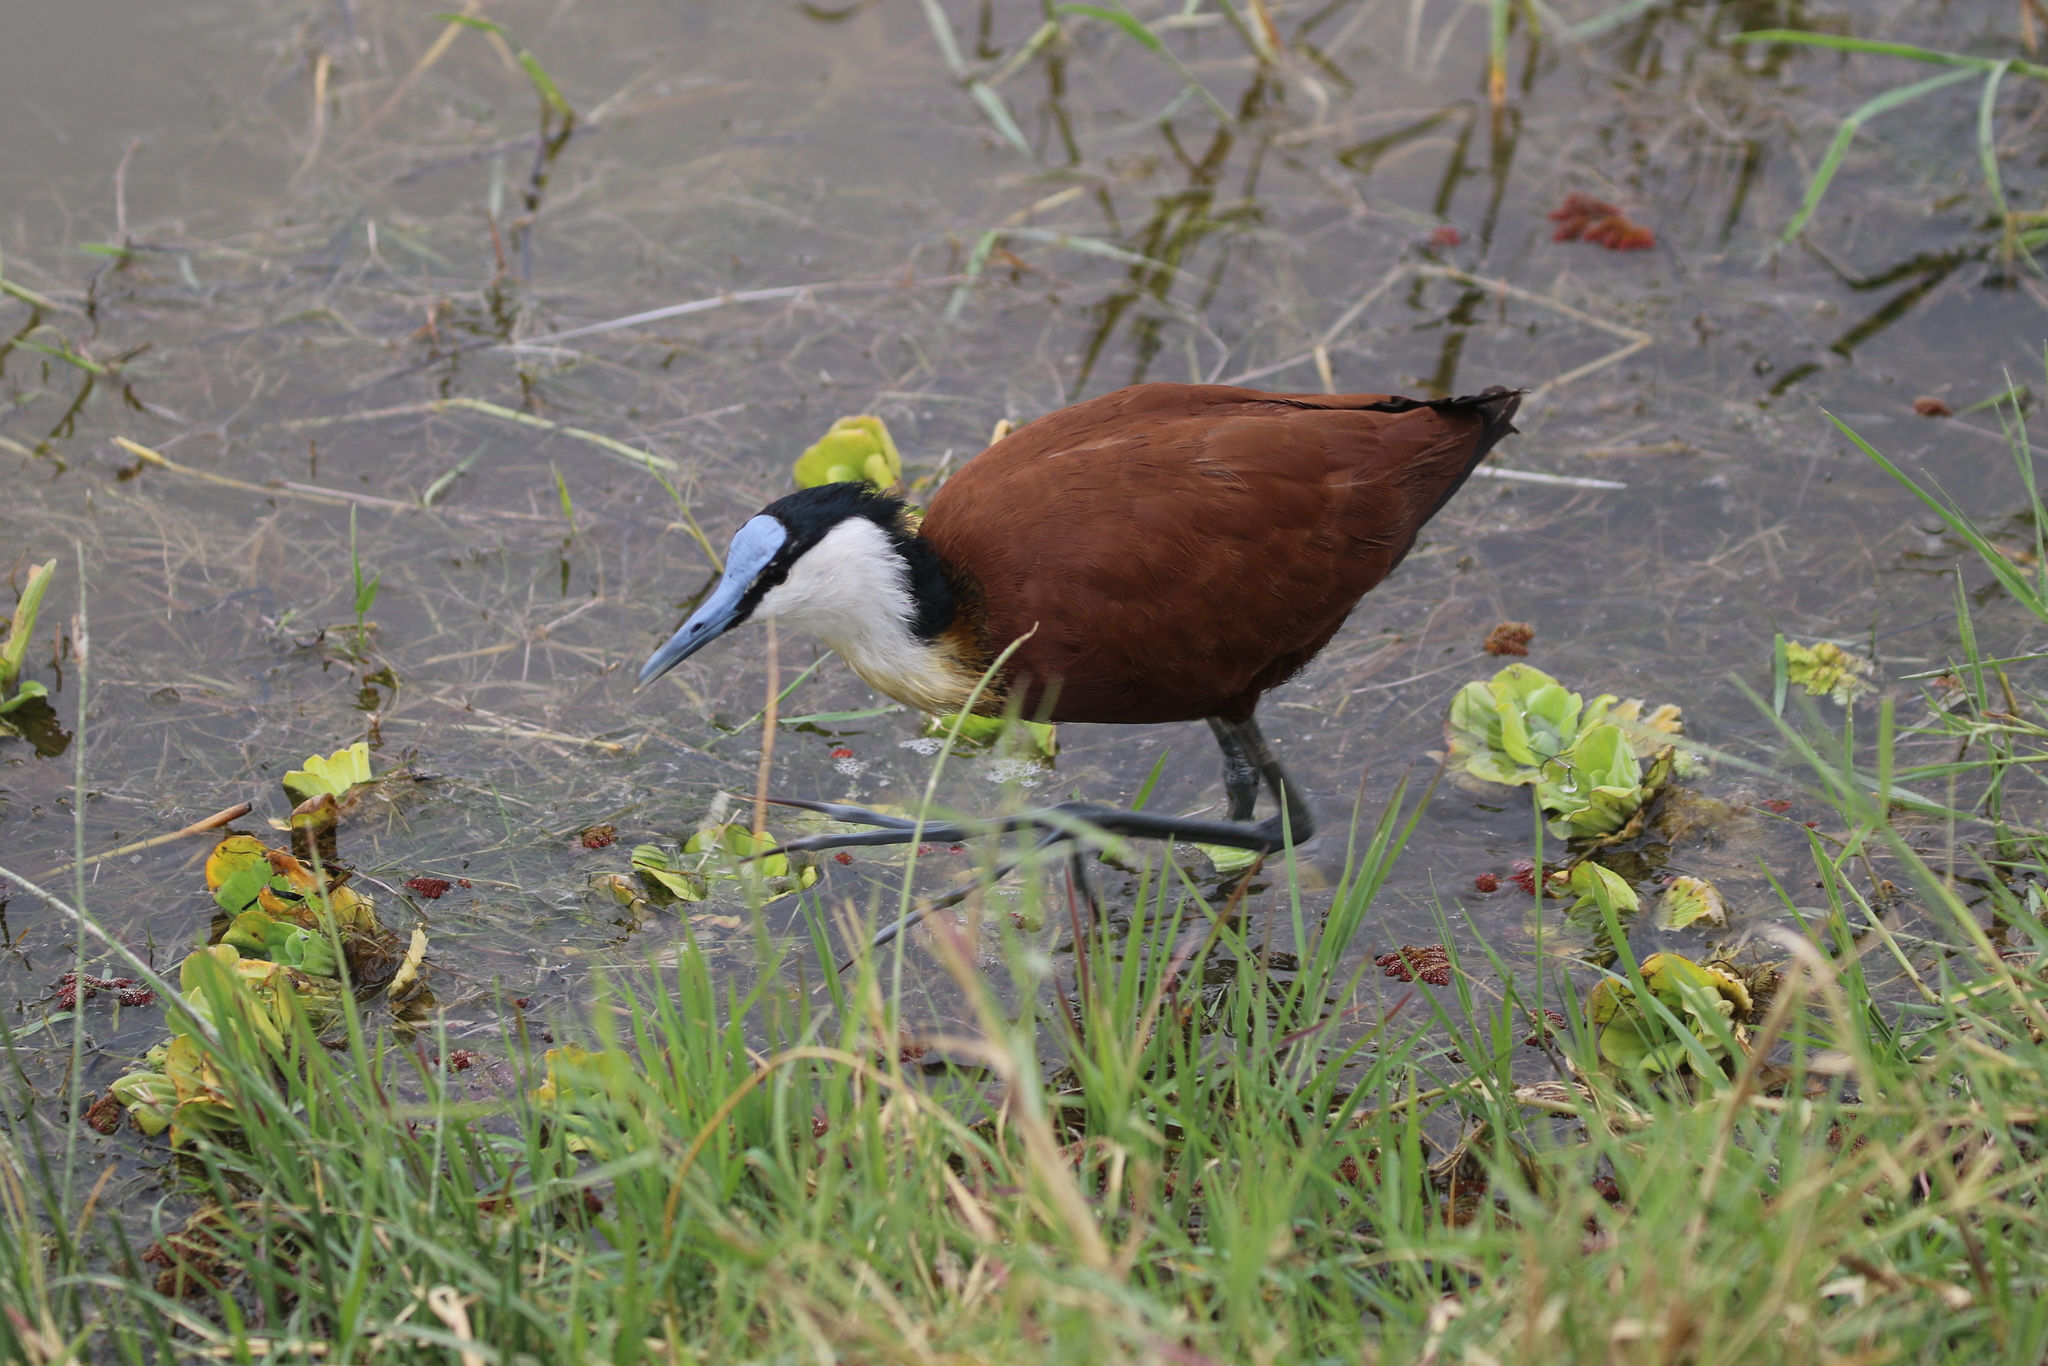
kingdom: Animalia
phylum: Chordata
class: Aves
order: Charadriiformes
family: Jacanidae
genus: Actophilornis
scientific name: Actophilornis africanus
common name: African jacana
